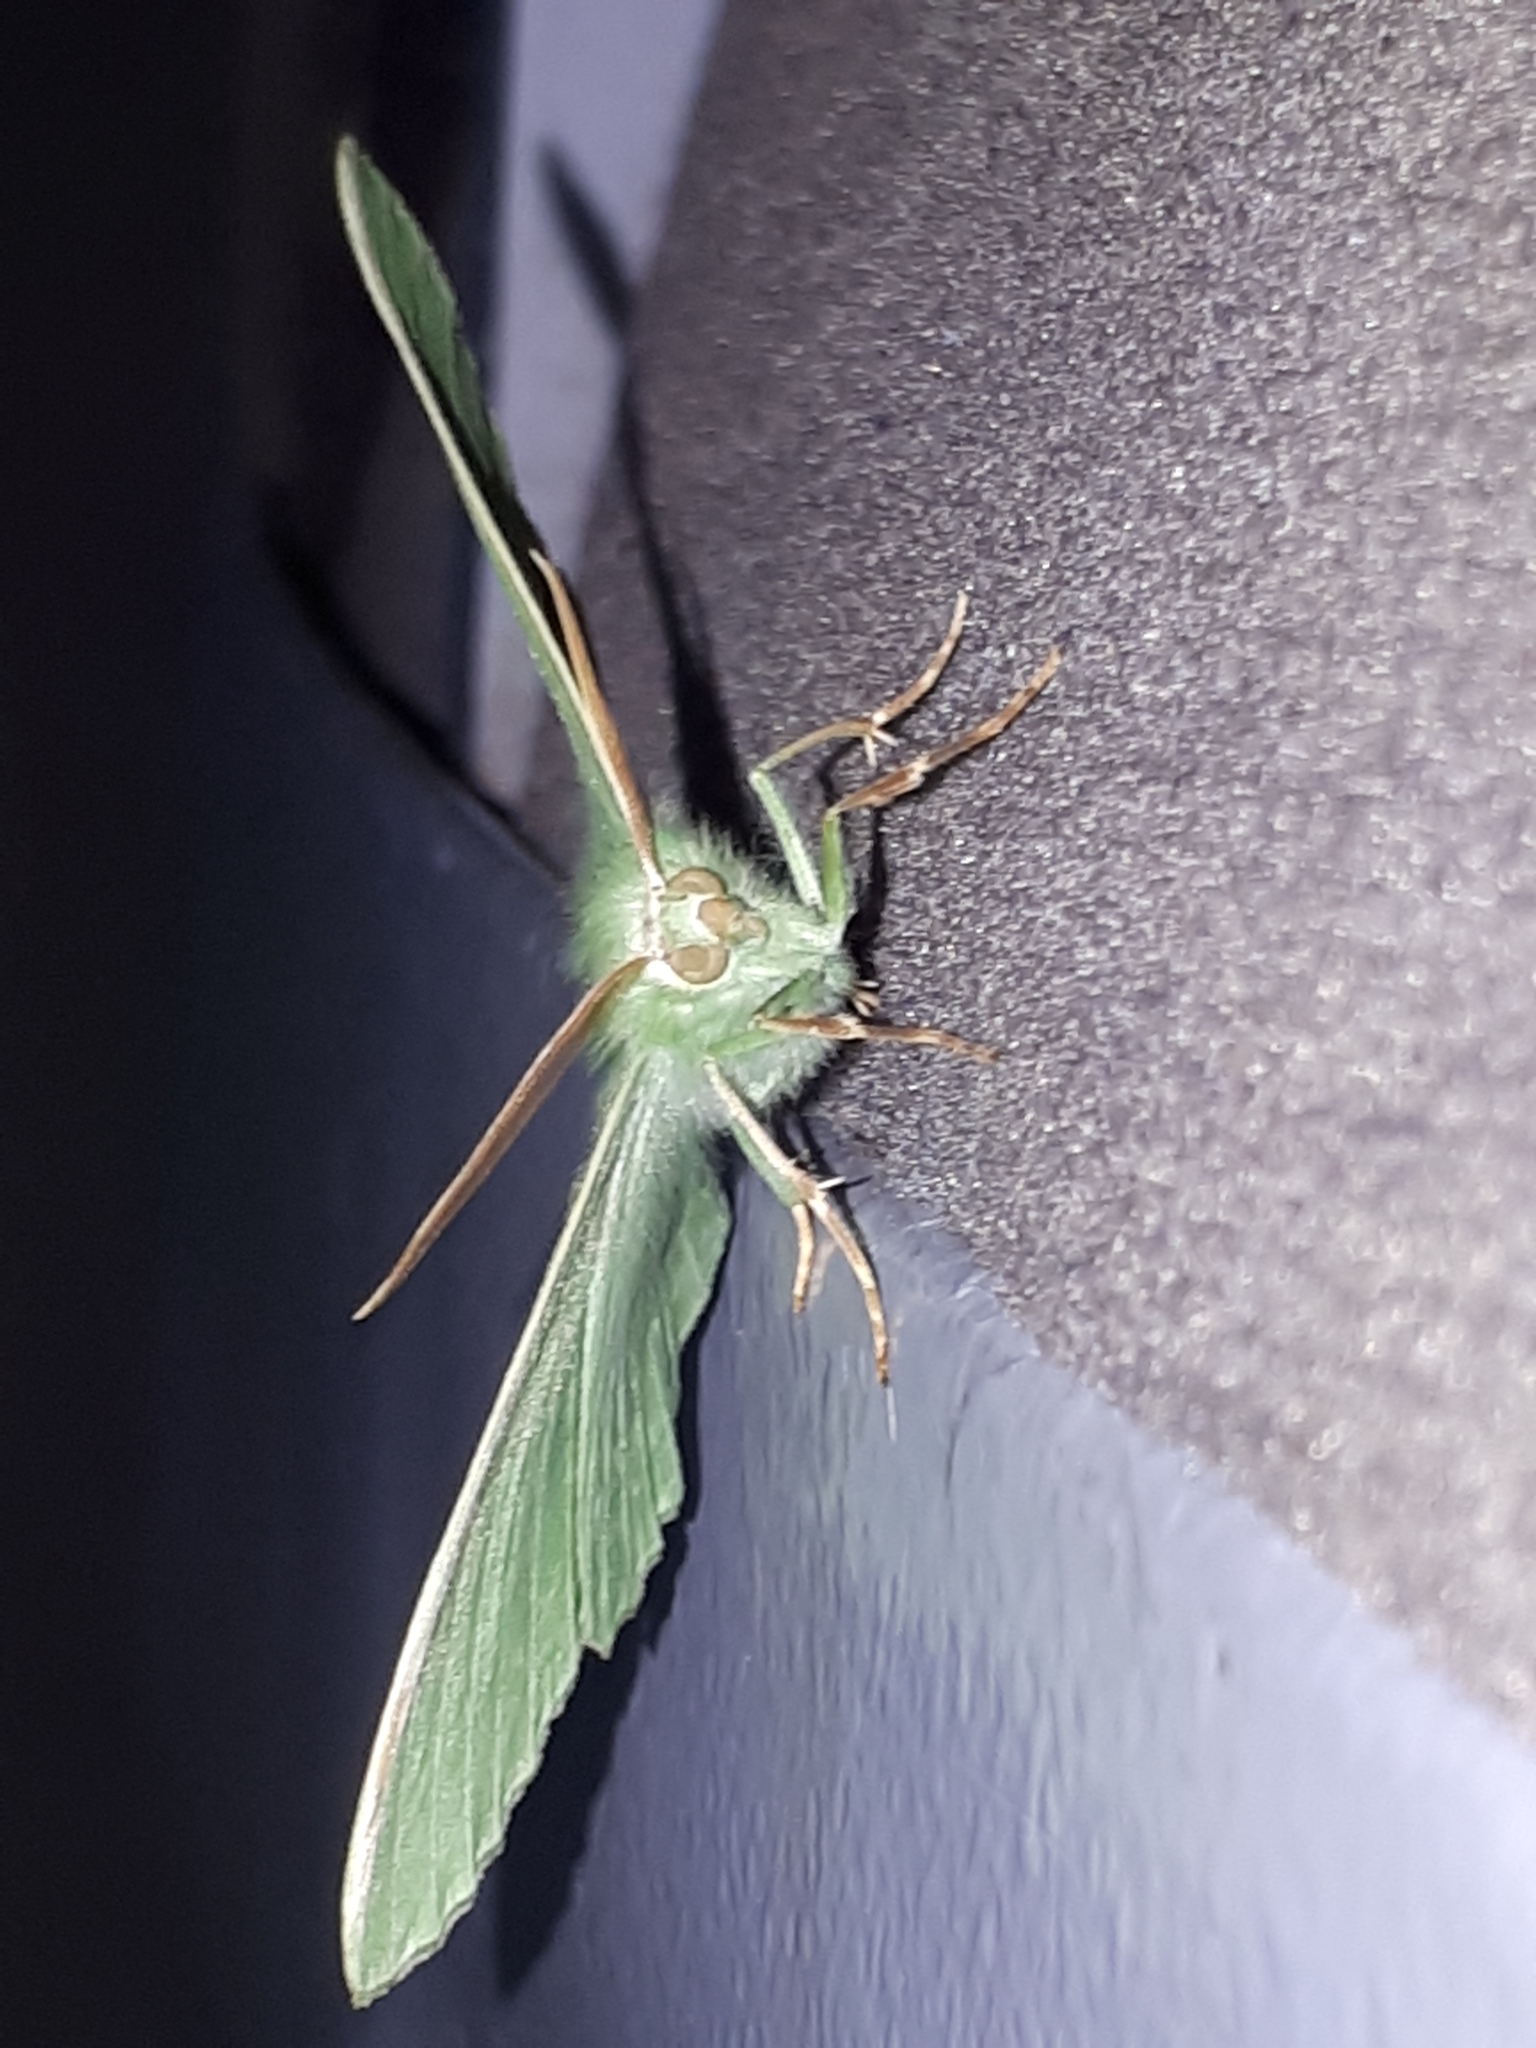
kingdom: Animalia
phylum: Arthropoda
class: Insecta
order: Lepidoptera
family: Geometridae
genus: Geometra
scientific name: Geometra papilionaria
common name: Large emerald
